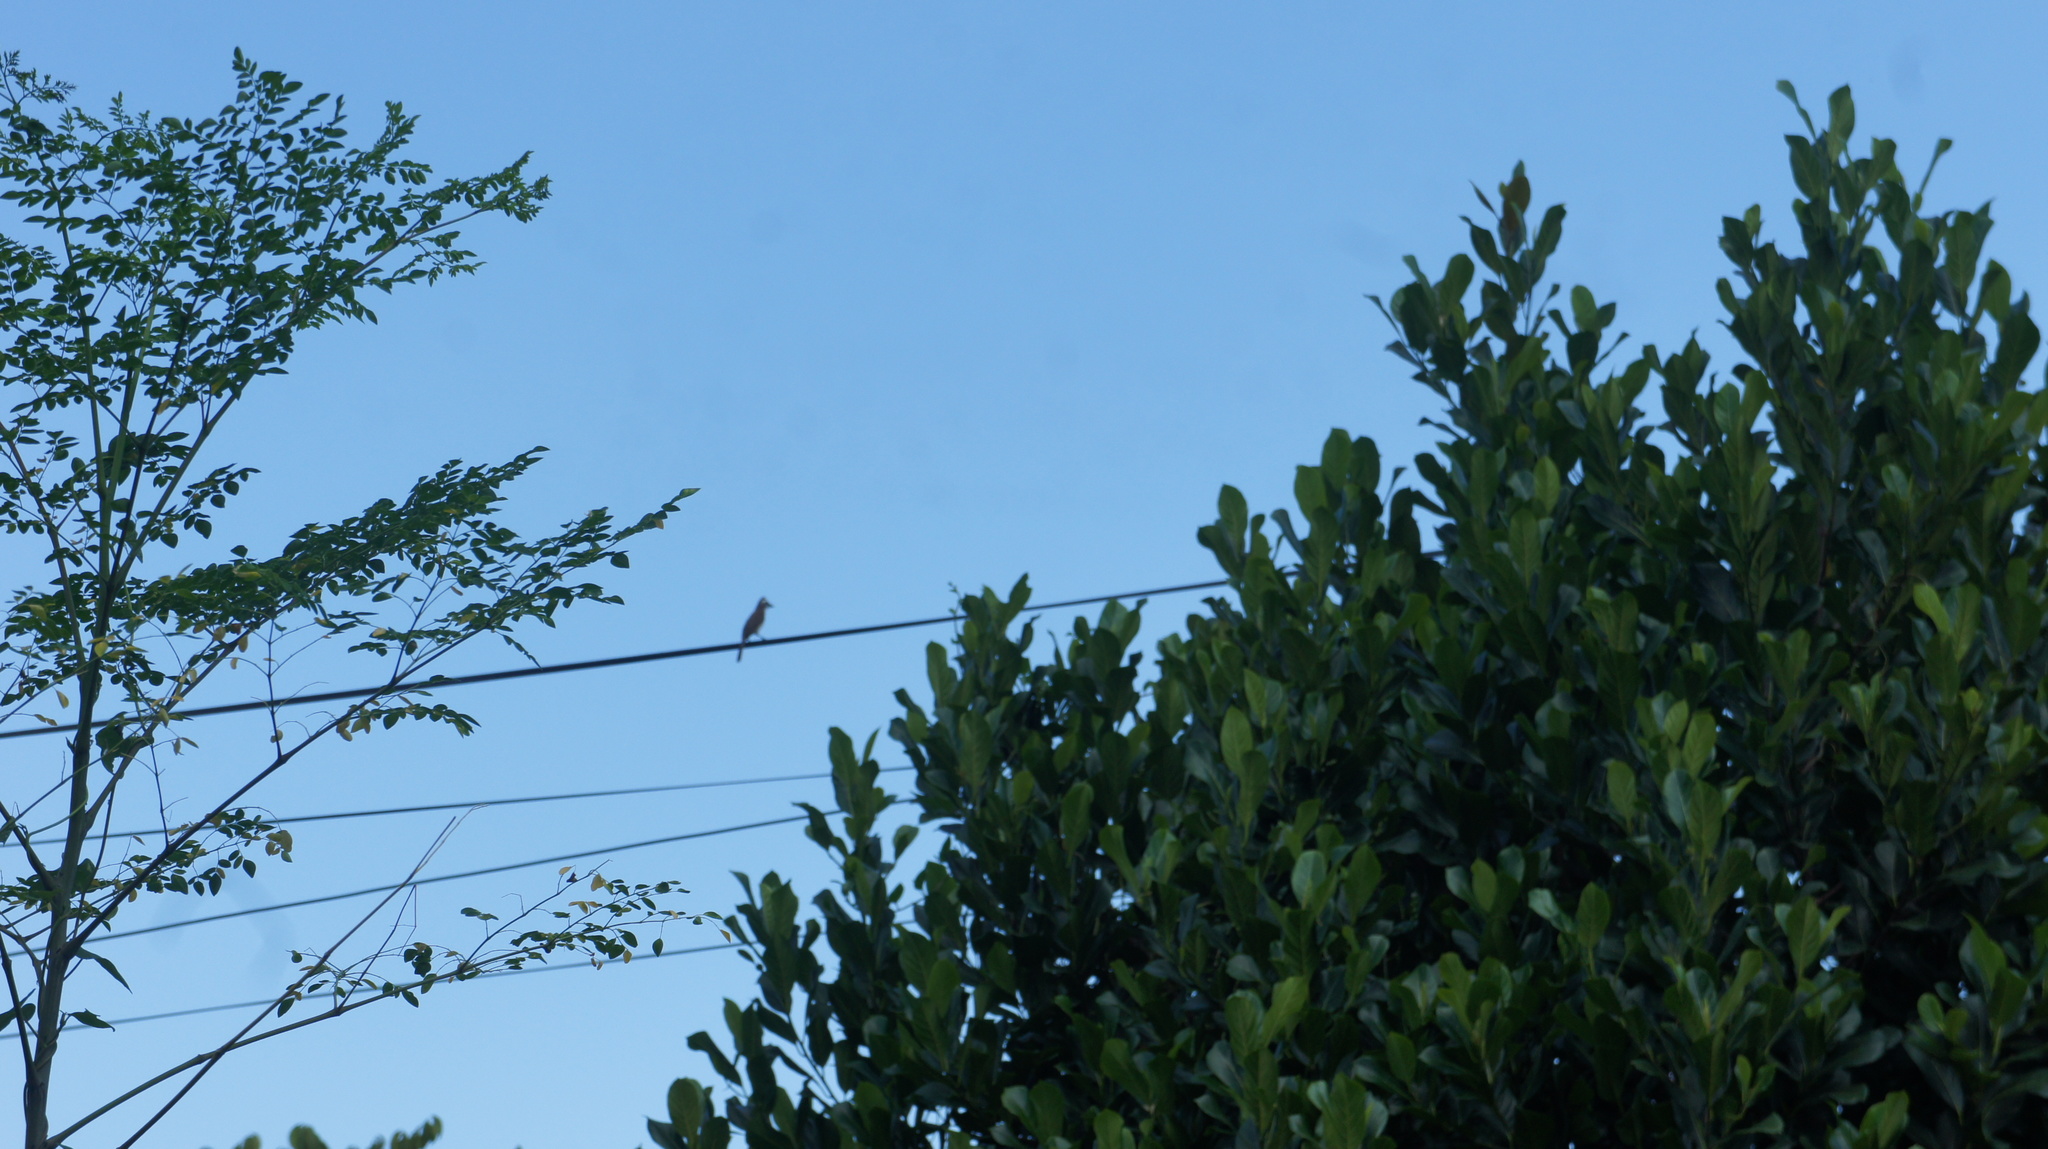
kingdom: Animalia
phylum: Chordata
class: Aves
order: Passeriformes
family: Pycnonotidae
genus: Pycnonotus
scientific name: Pycnonotus goiavier
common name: Yellow-vented bulbul
